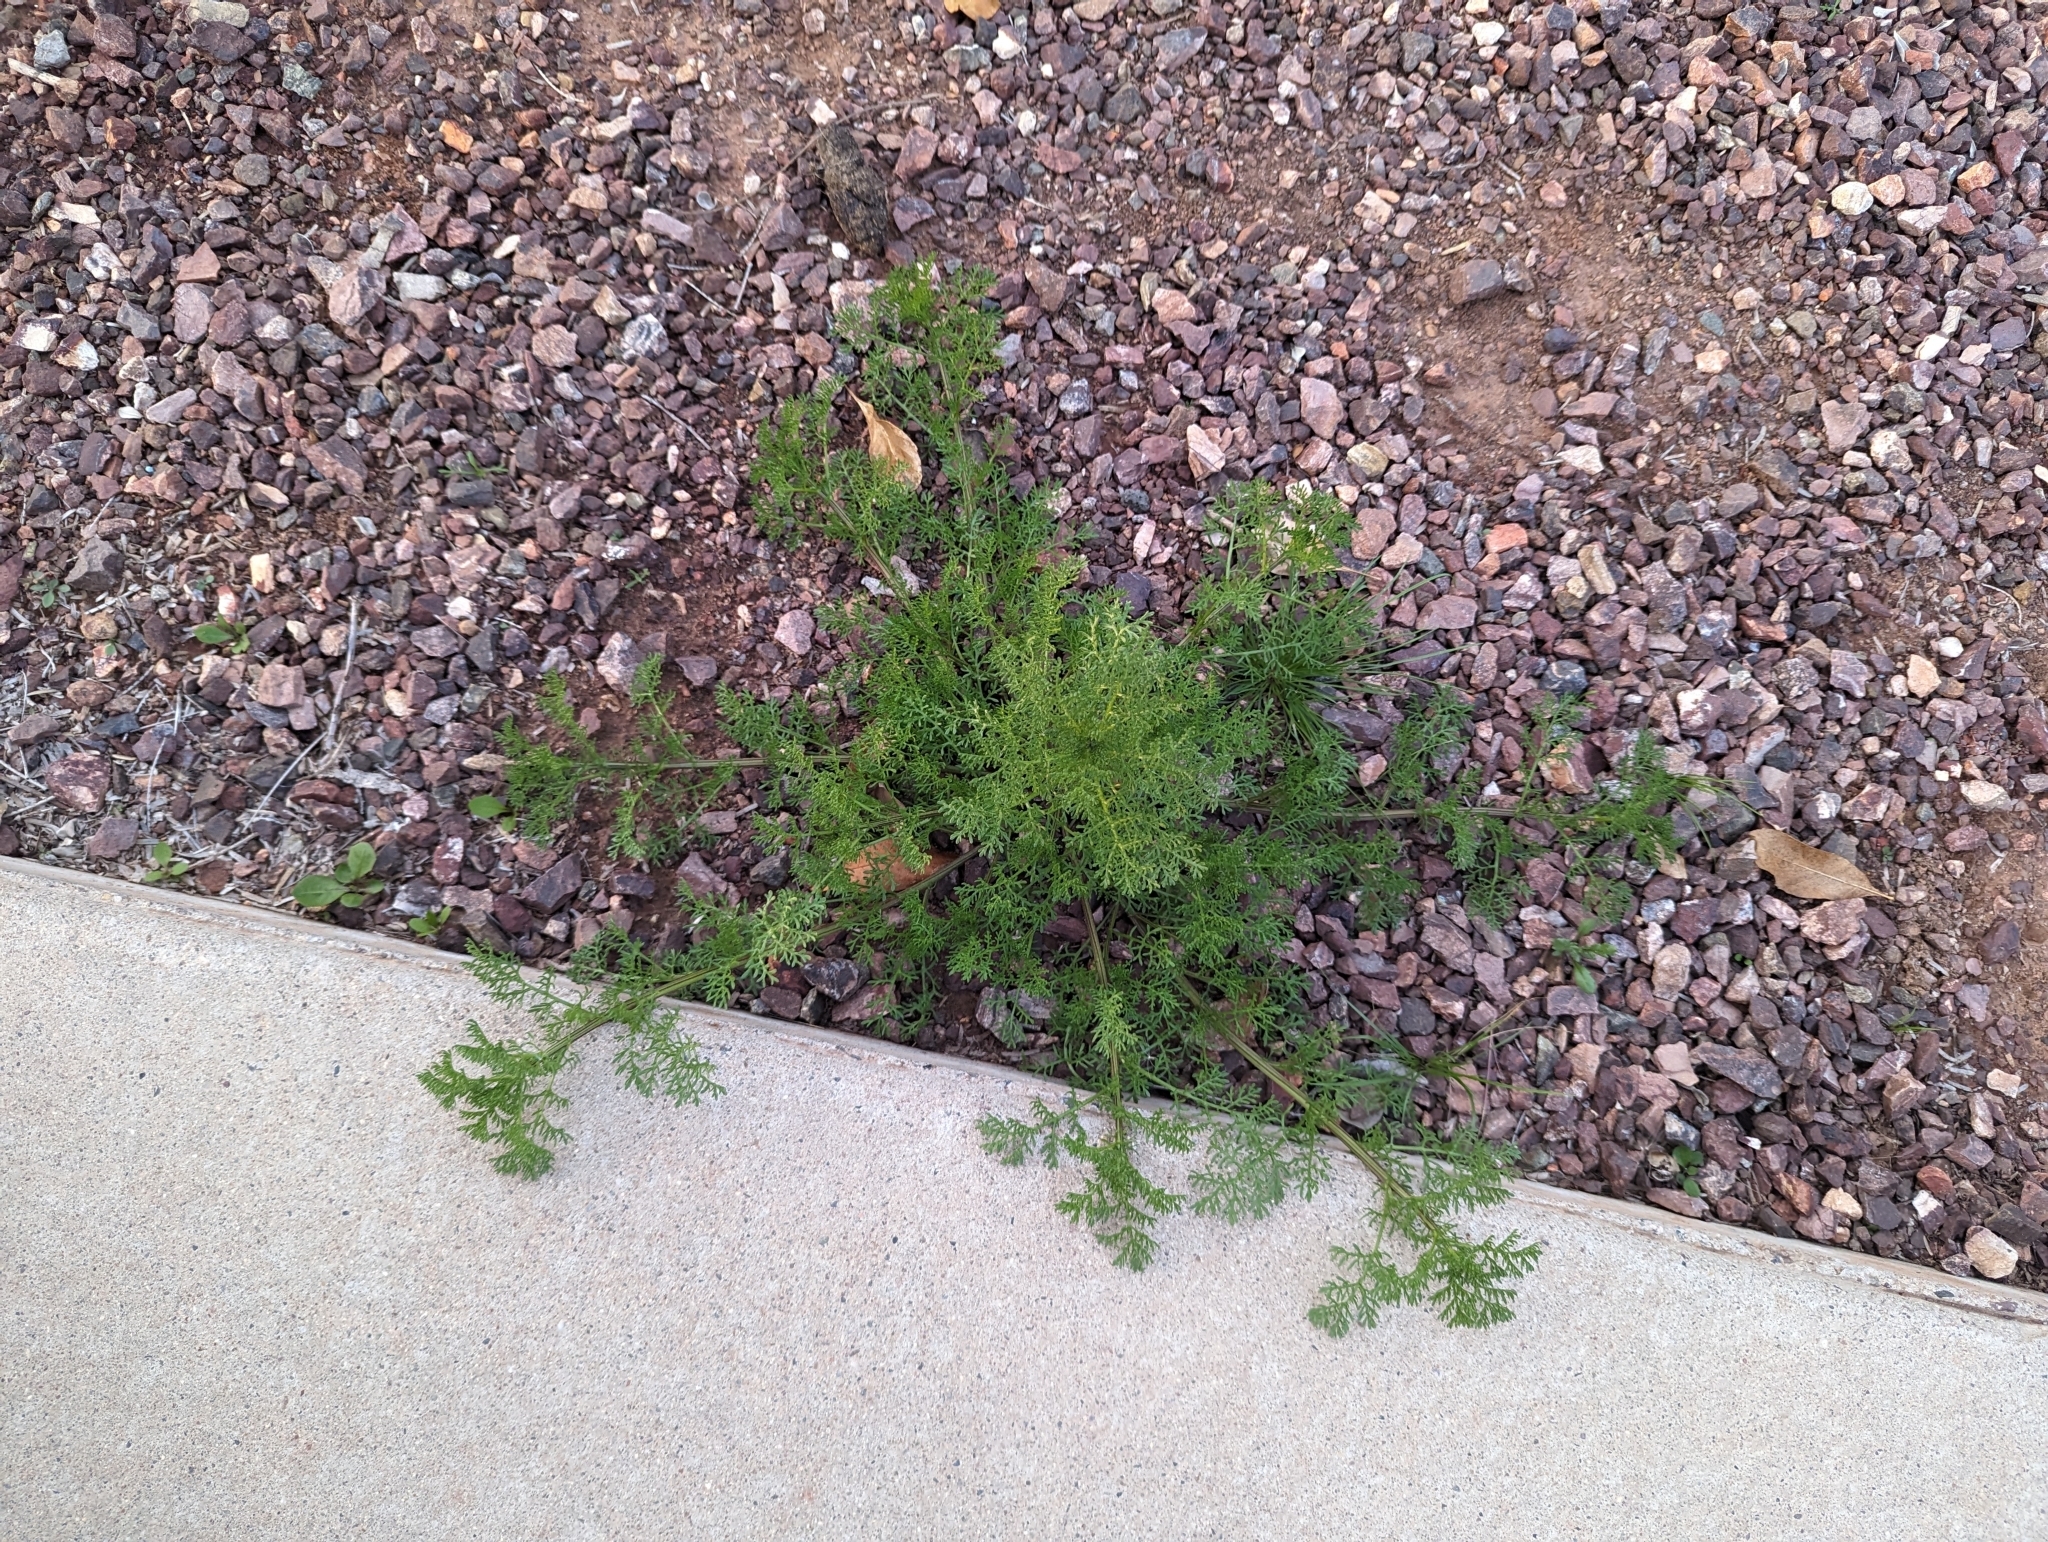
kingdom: Plantae
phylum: Tracheophyta
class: Magnoliopsida
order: Asterales
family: Asteraceae
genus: Oncosiphon
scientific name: Oncosiphon pilulifer
